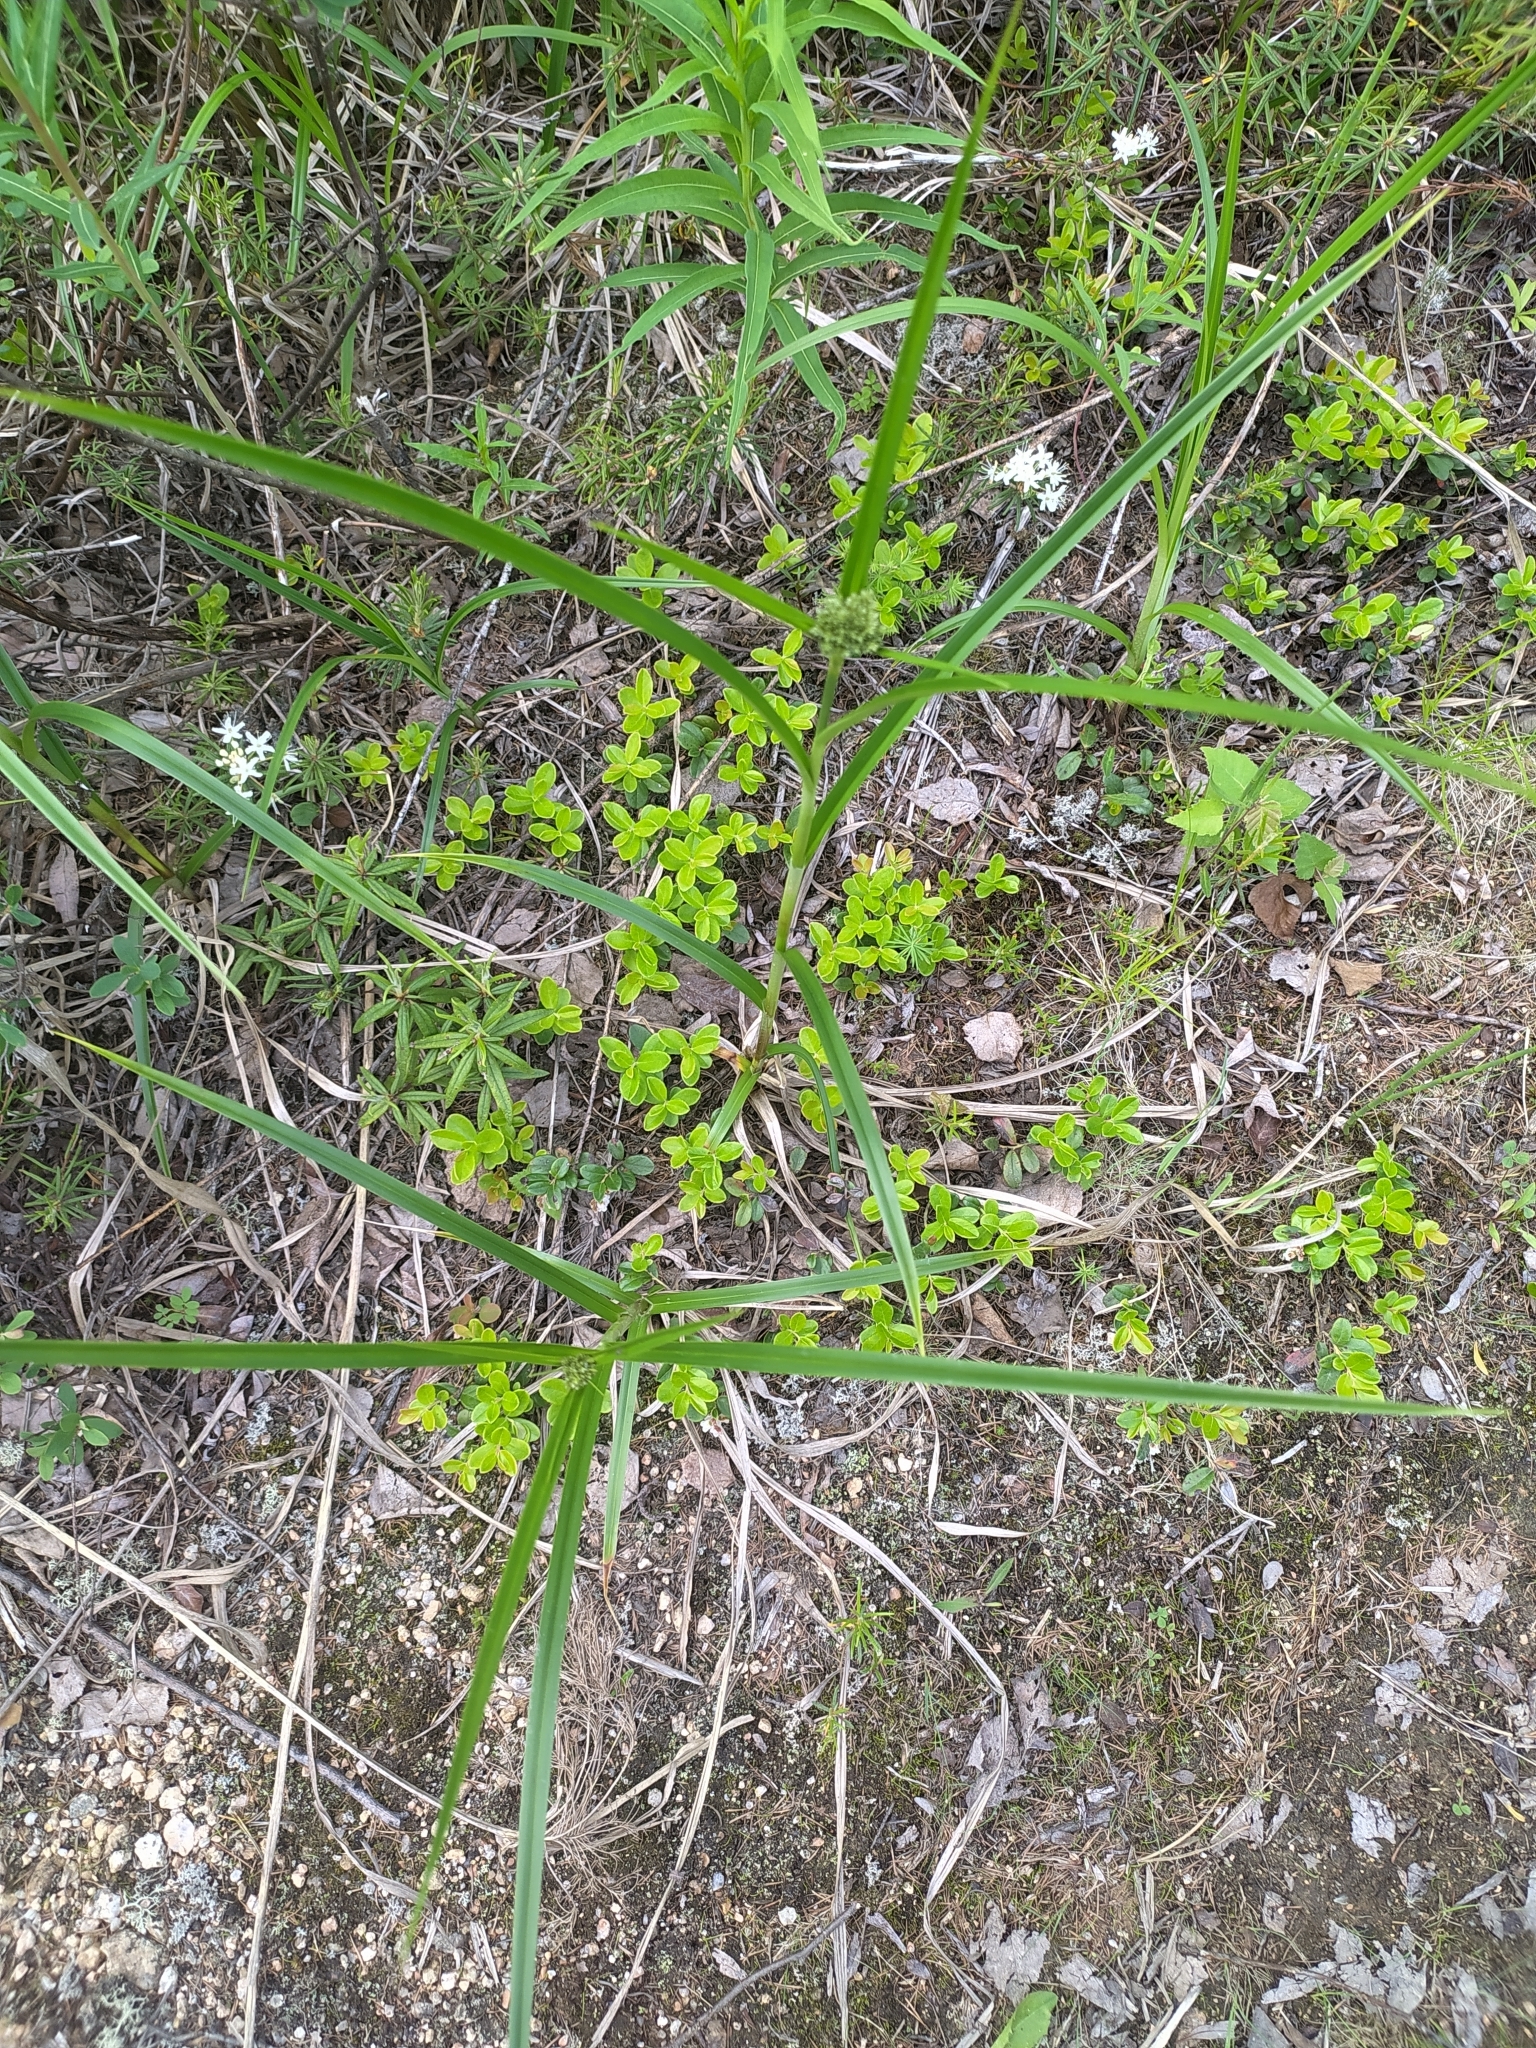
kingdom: Plantae
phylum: Tracheophyta
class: Liliopsida
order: Poales
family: Cyperaceae
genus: Scirpus
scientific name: Scirpus radicans
